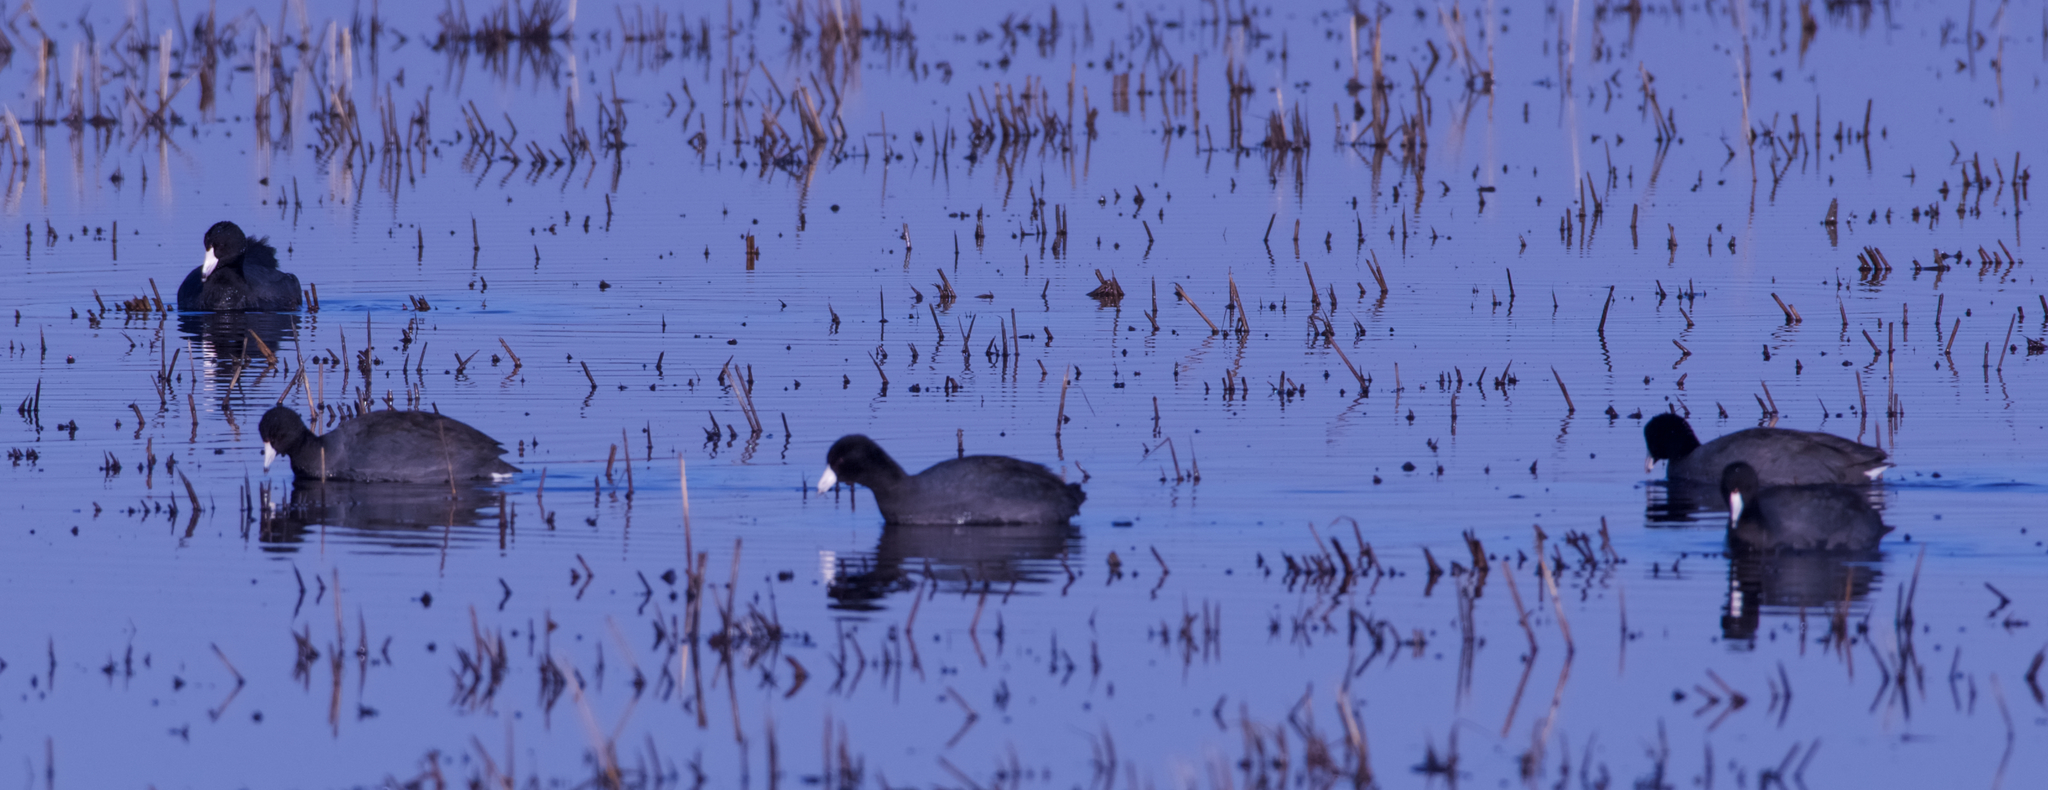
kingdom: Animalia
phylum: Chordata
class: Aves
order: Gruiformes
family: Rallidae
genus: Fulica
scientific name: Fulica americana
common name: American coot
